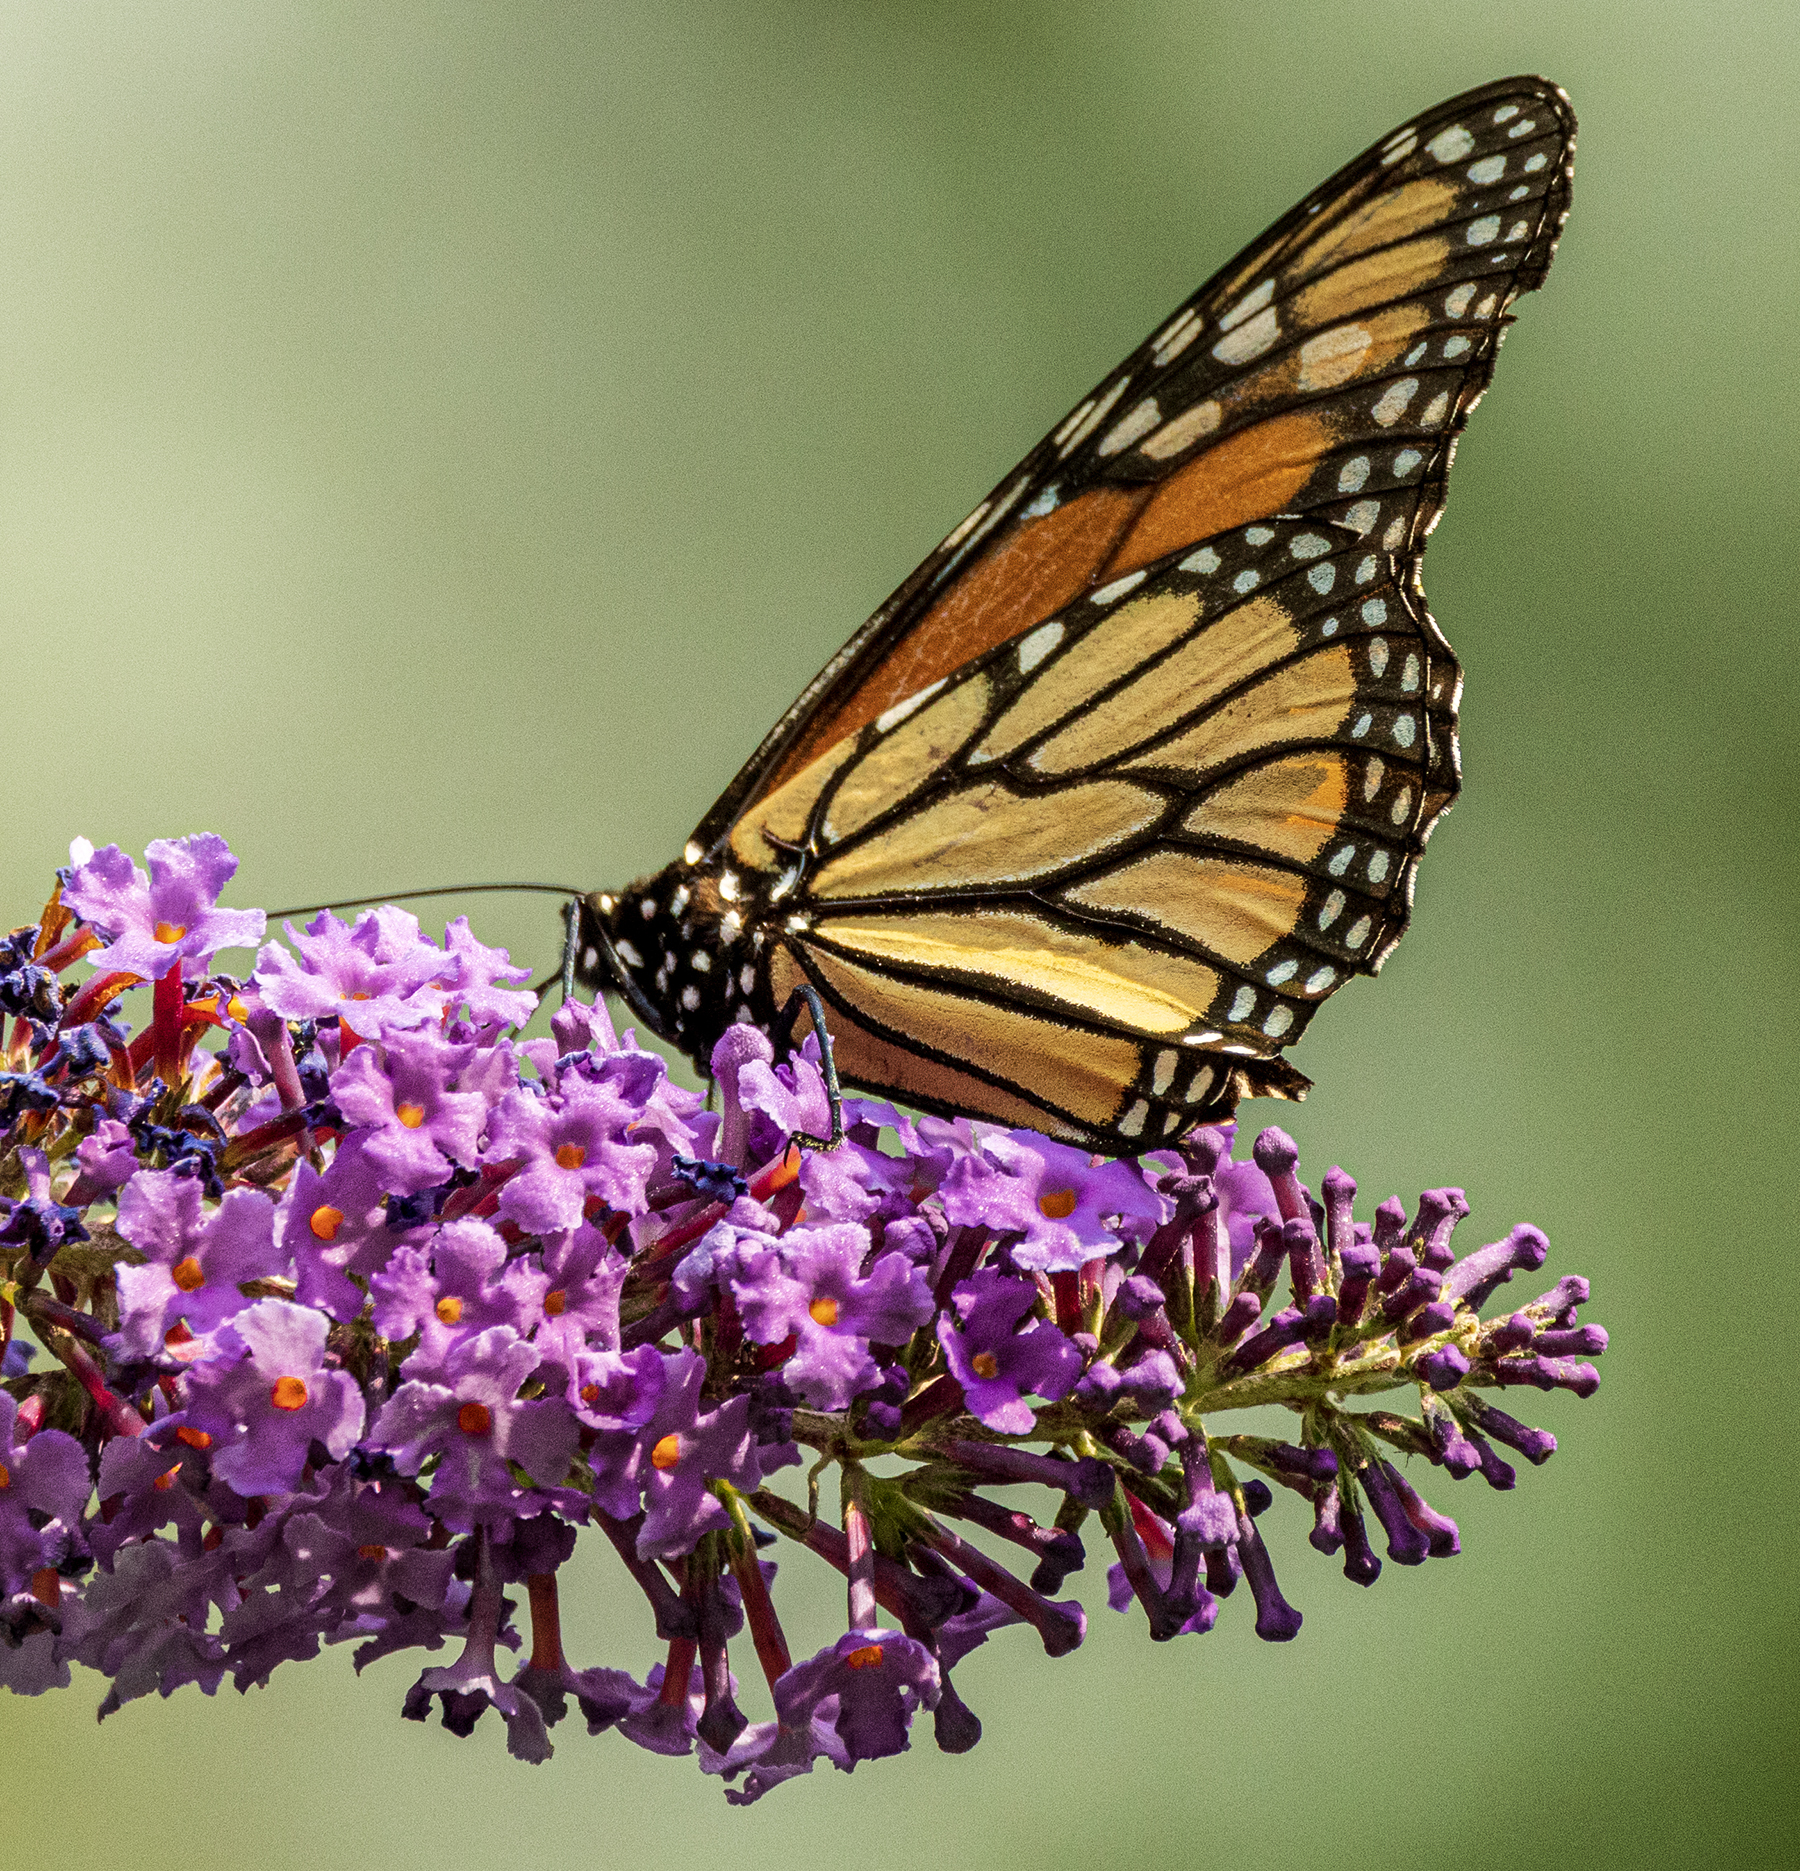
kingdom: Animalia
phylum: Arthropoda
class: Insecta
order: Lepidoptera
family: Nymphalidae
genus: Danaus
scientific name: Danaus plexippus
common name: Monarch
